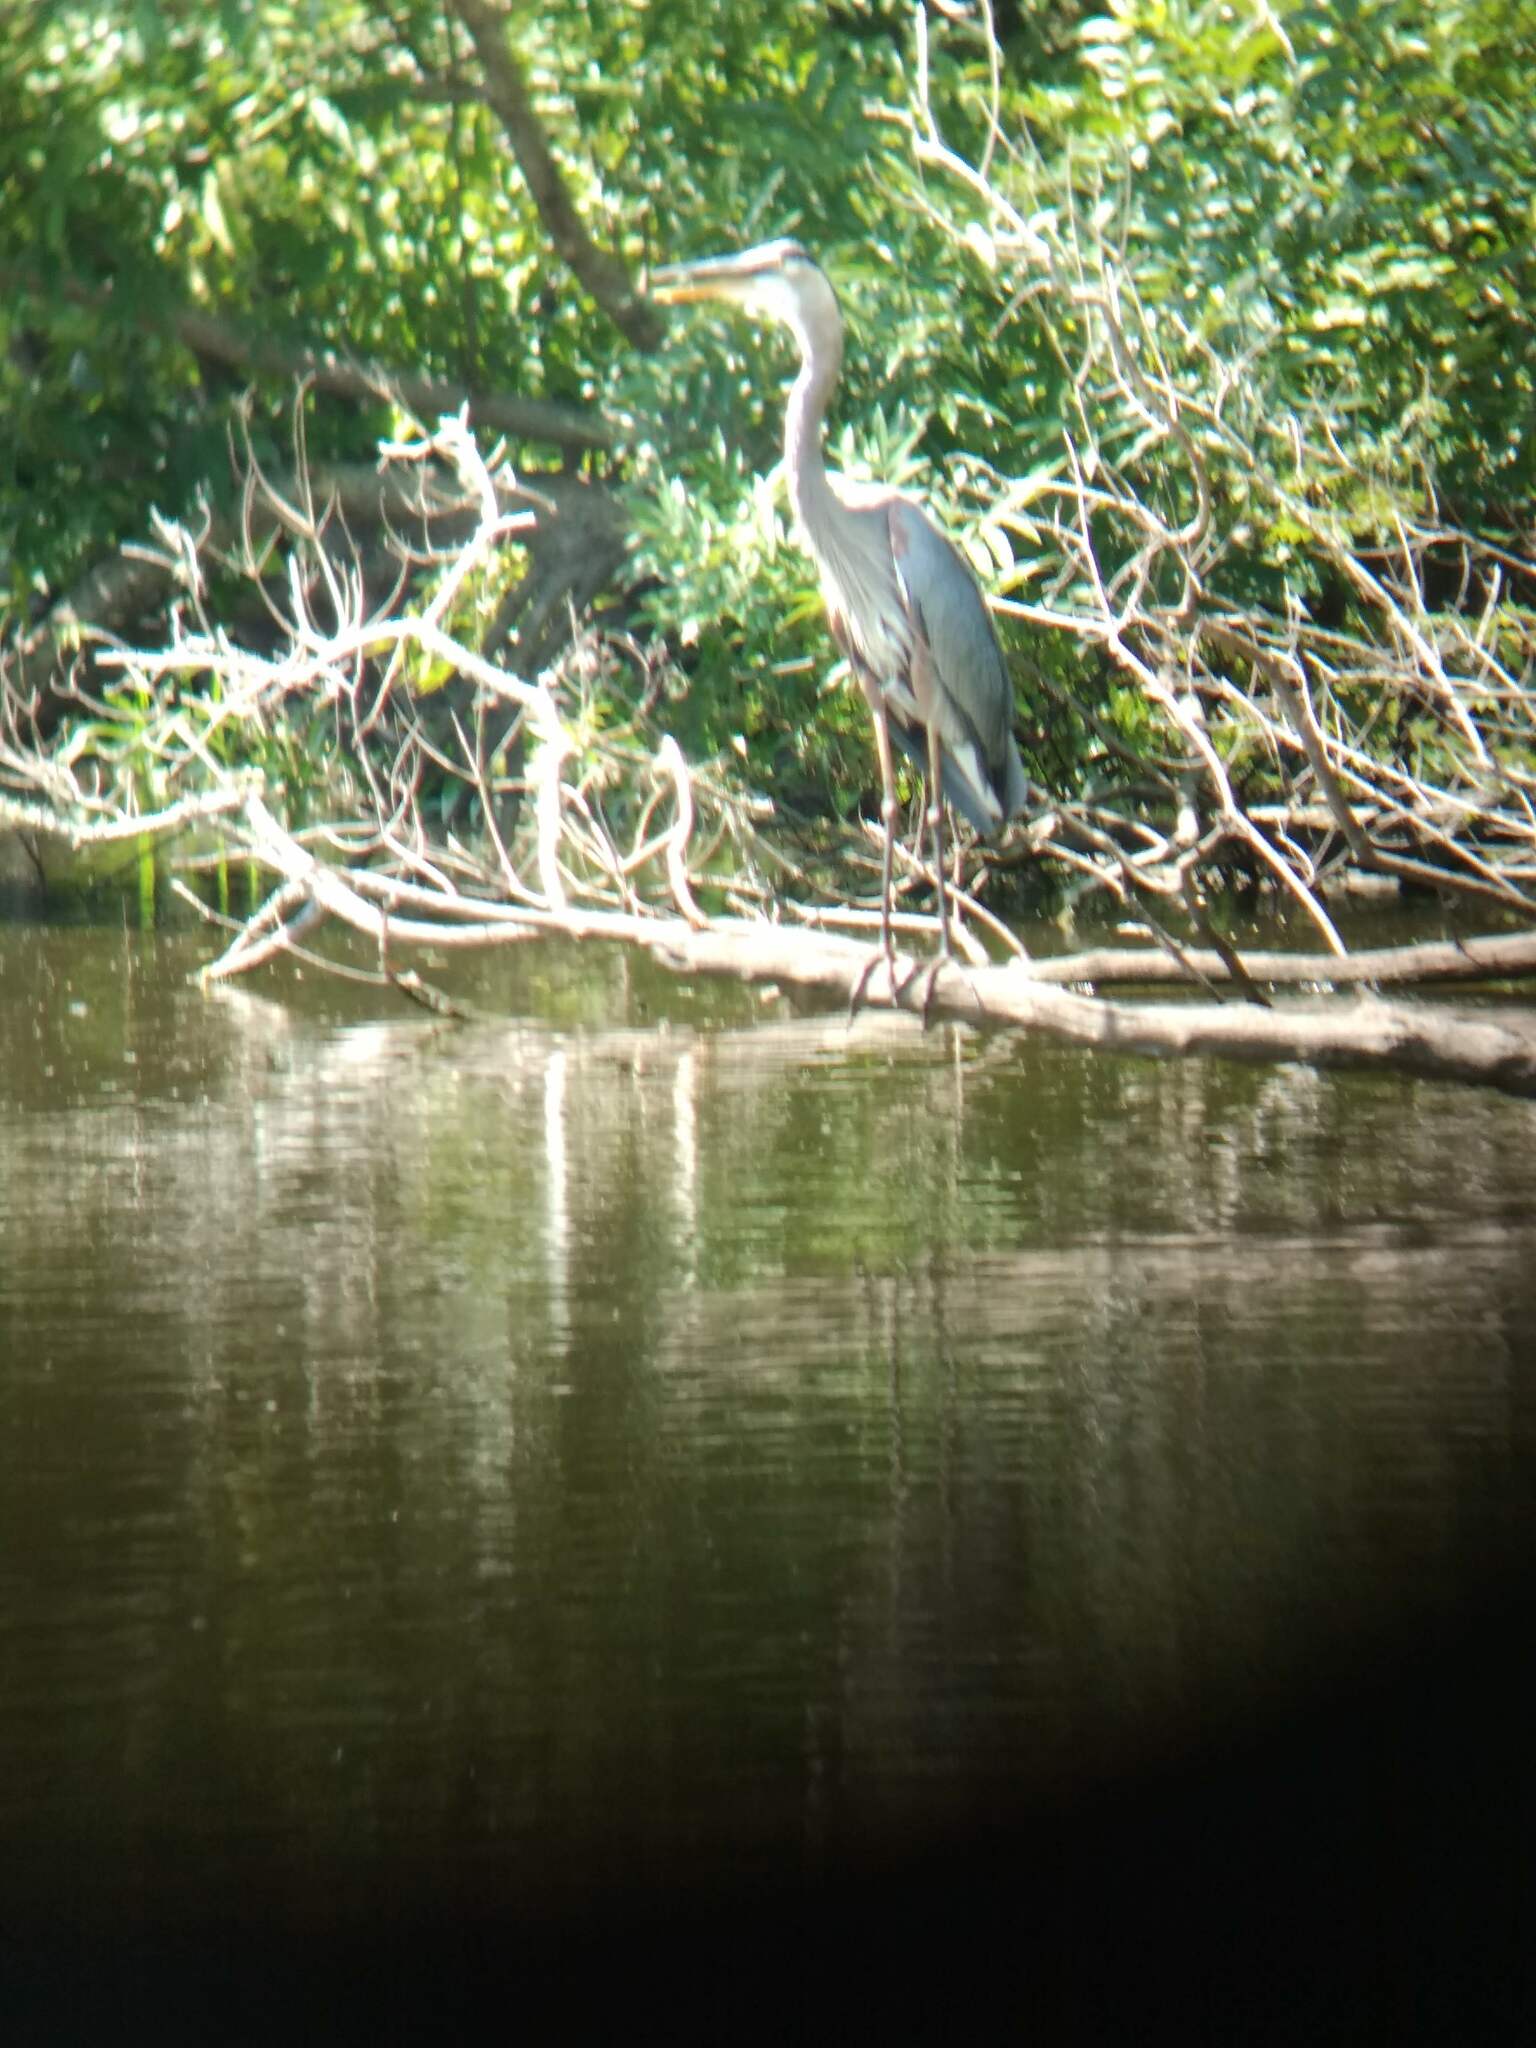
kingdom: Animalia
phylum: Chordata
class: Aves
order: Pelecaniformes
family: Ardeidae
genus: Ardea
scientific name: Ardea herodias
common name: Great blue heron
